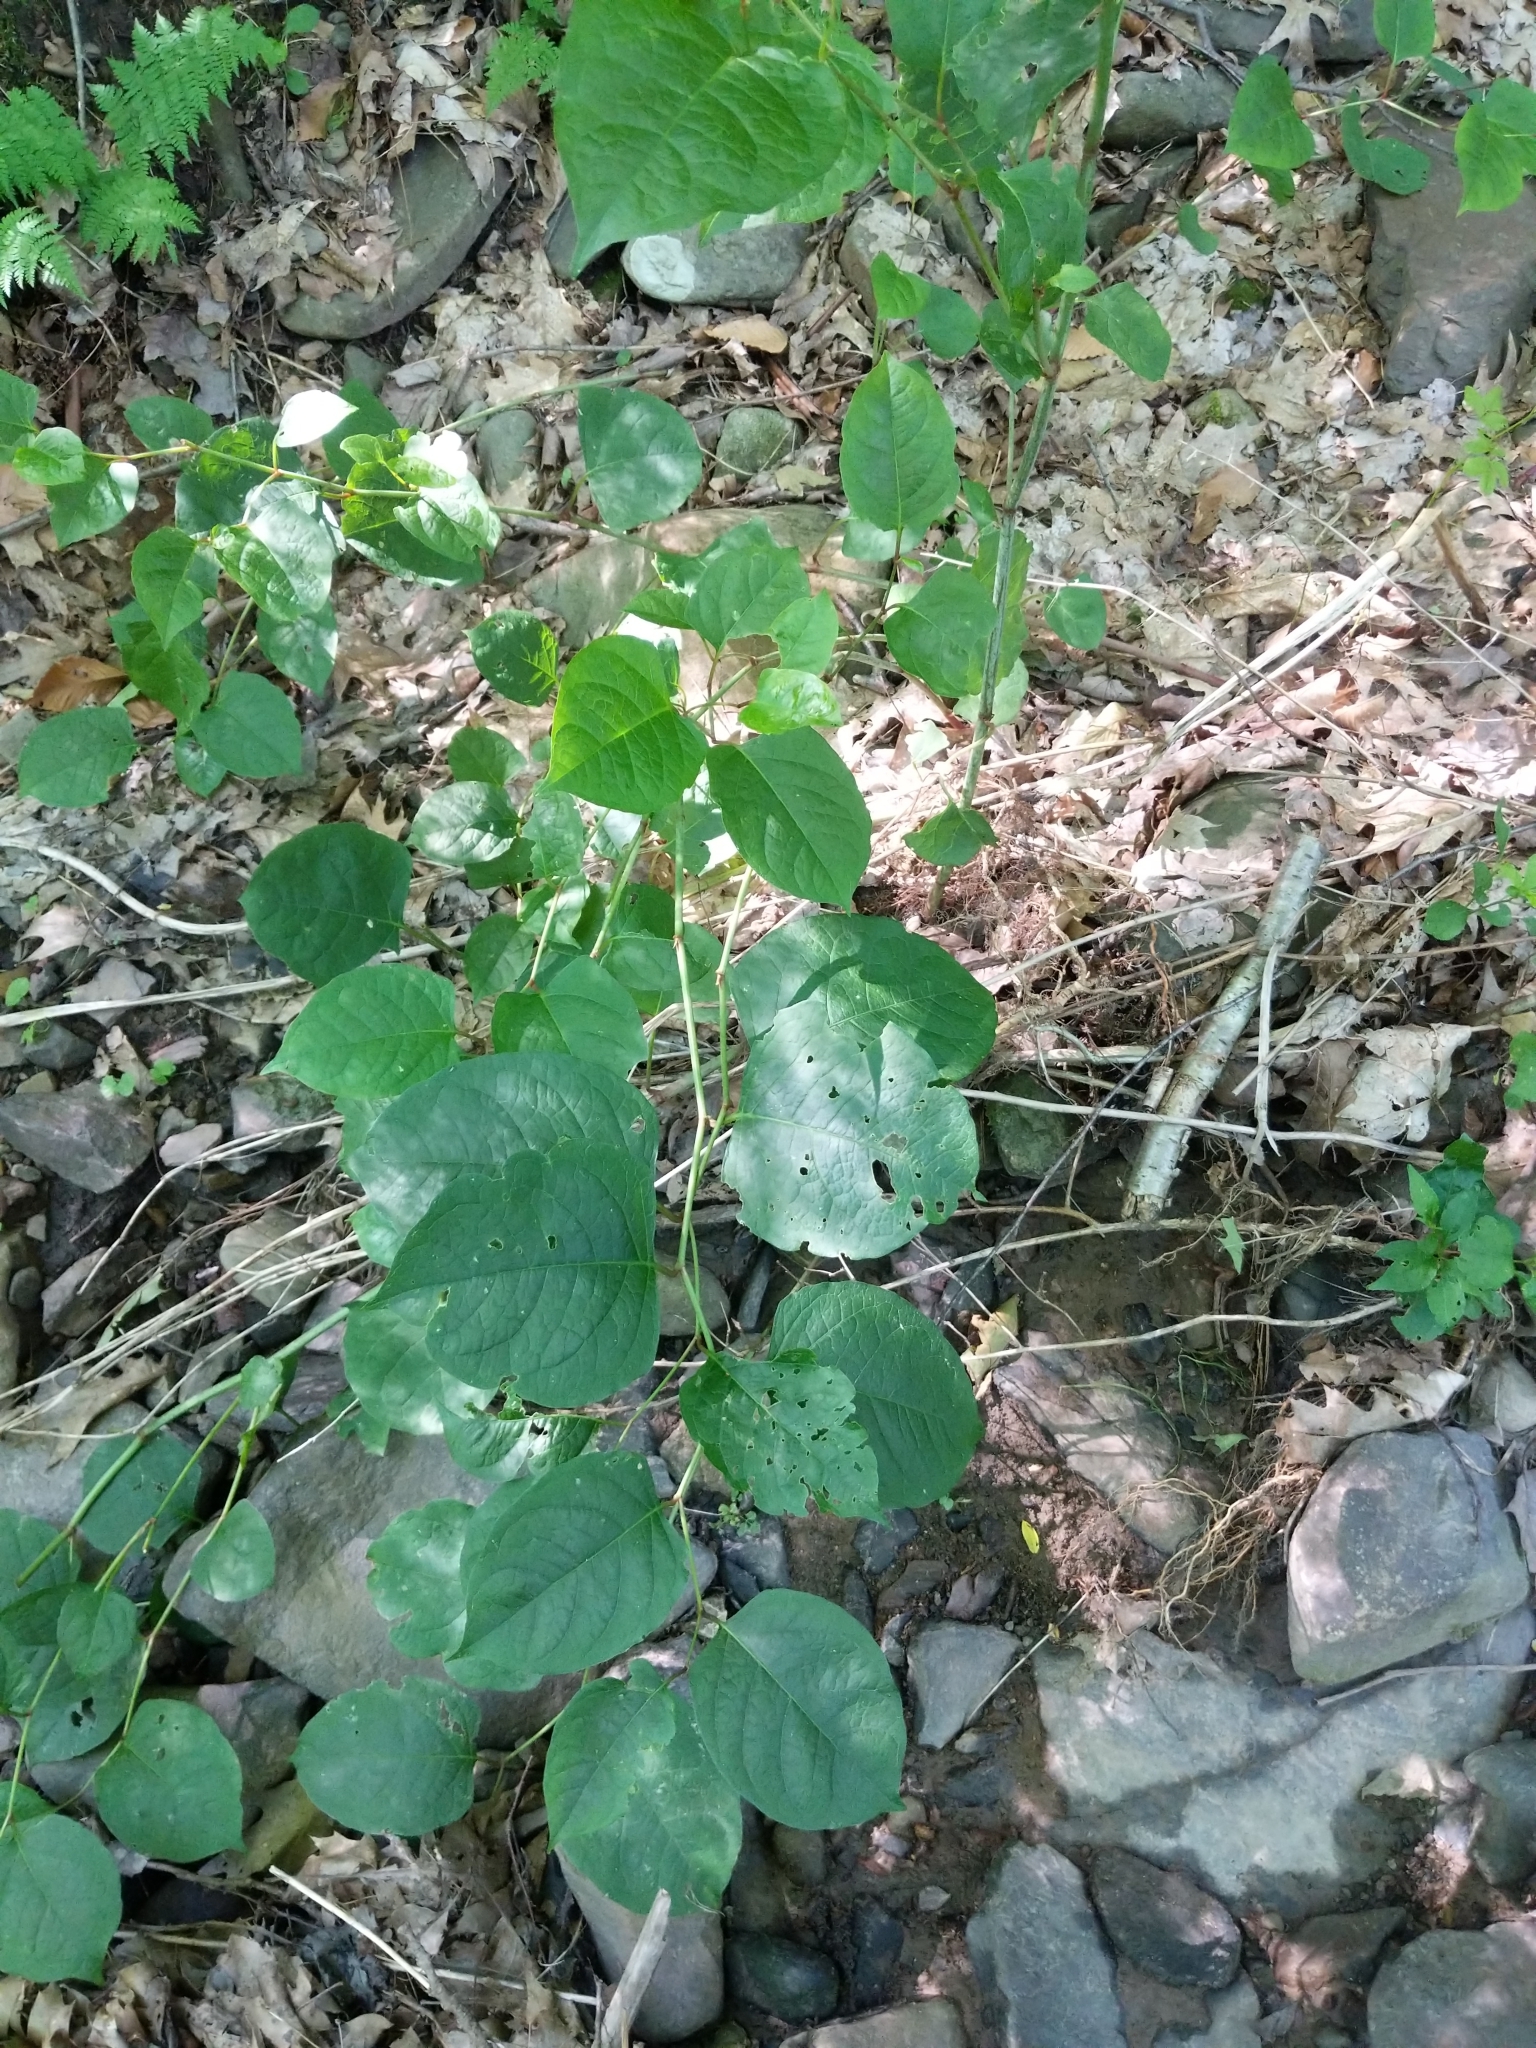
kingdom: Plantae
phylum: Tracheophyta
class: Magnoliopsida
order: Caryophyllales
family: Polygonaceae
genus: Reynoutria
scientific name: Reynoutria japonica
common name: Japanese knotweed
